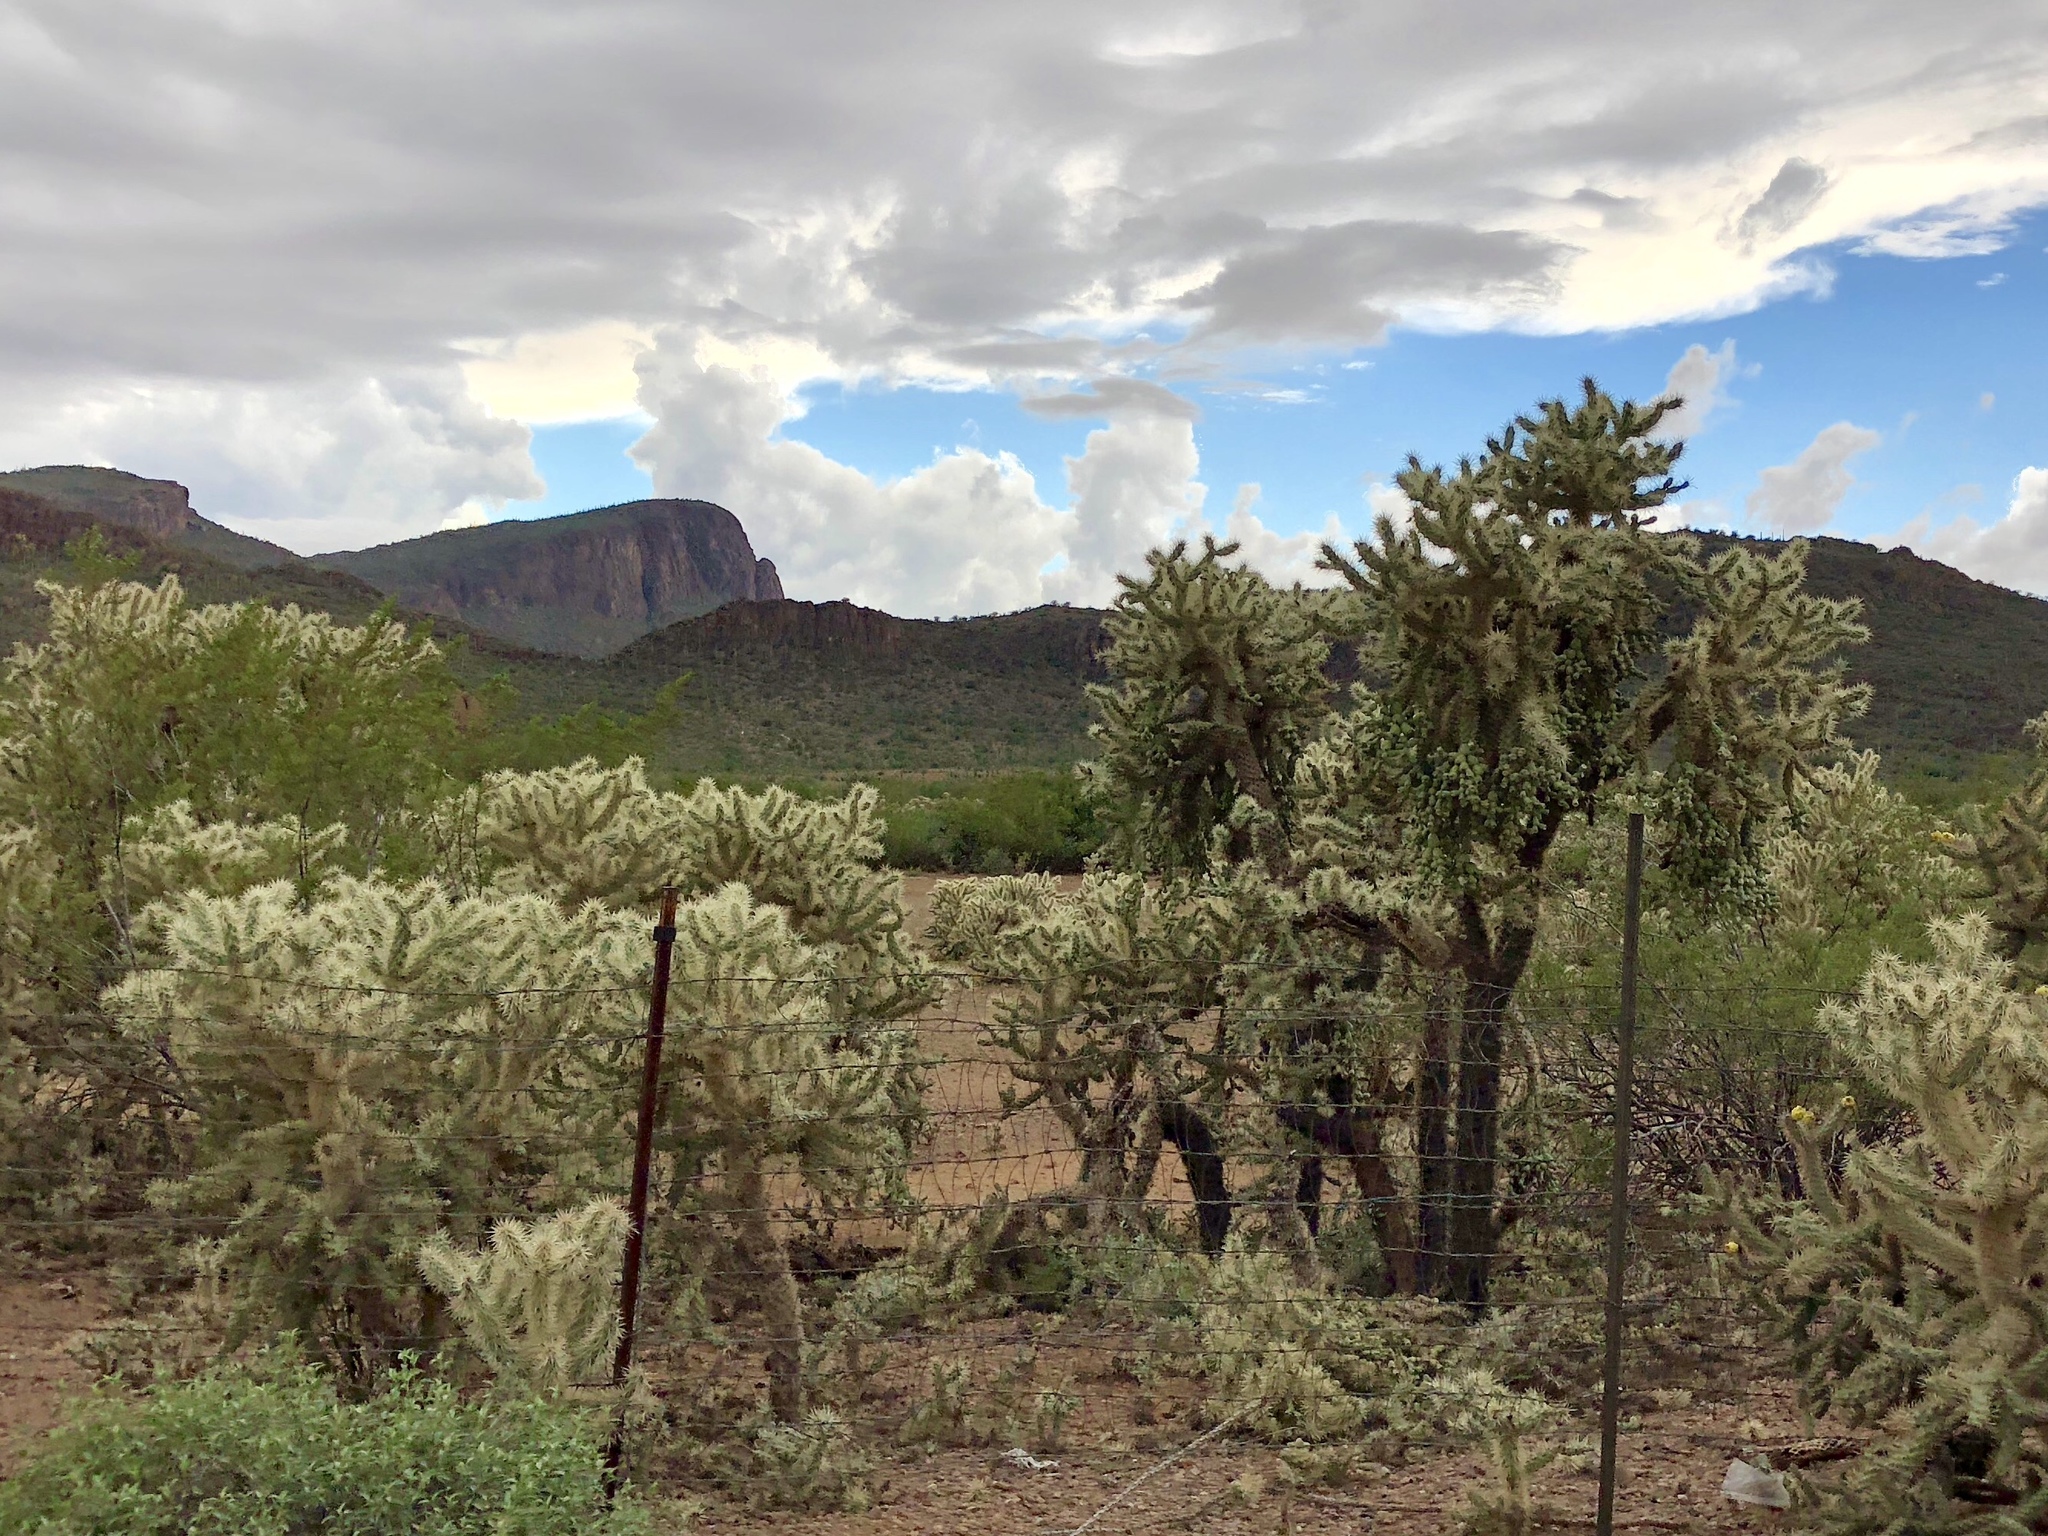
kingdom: Plantae
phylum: Tracheophyta
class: Magnoliopsida
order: Caryophyllales
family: Cactaceae
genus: Cylindropuntia
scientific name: Cylindropuntia fulgida
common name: Jumping cholla
